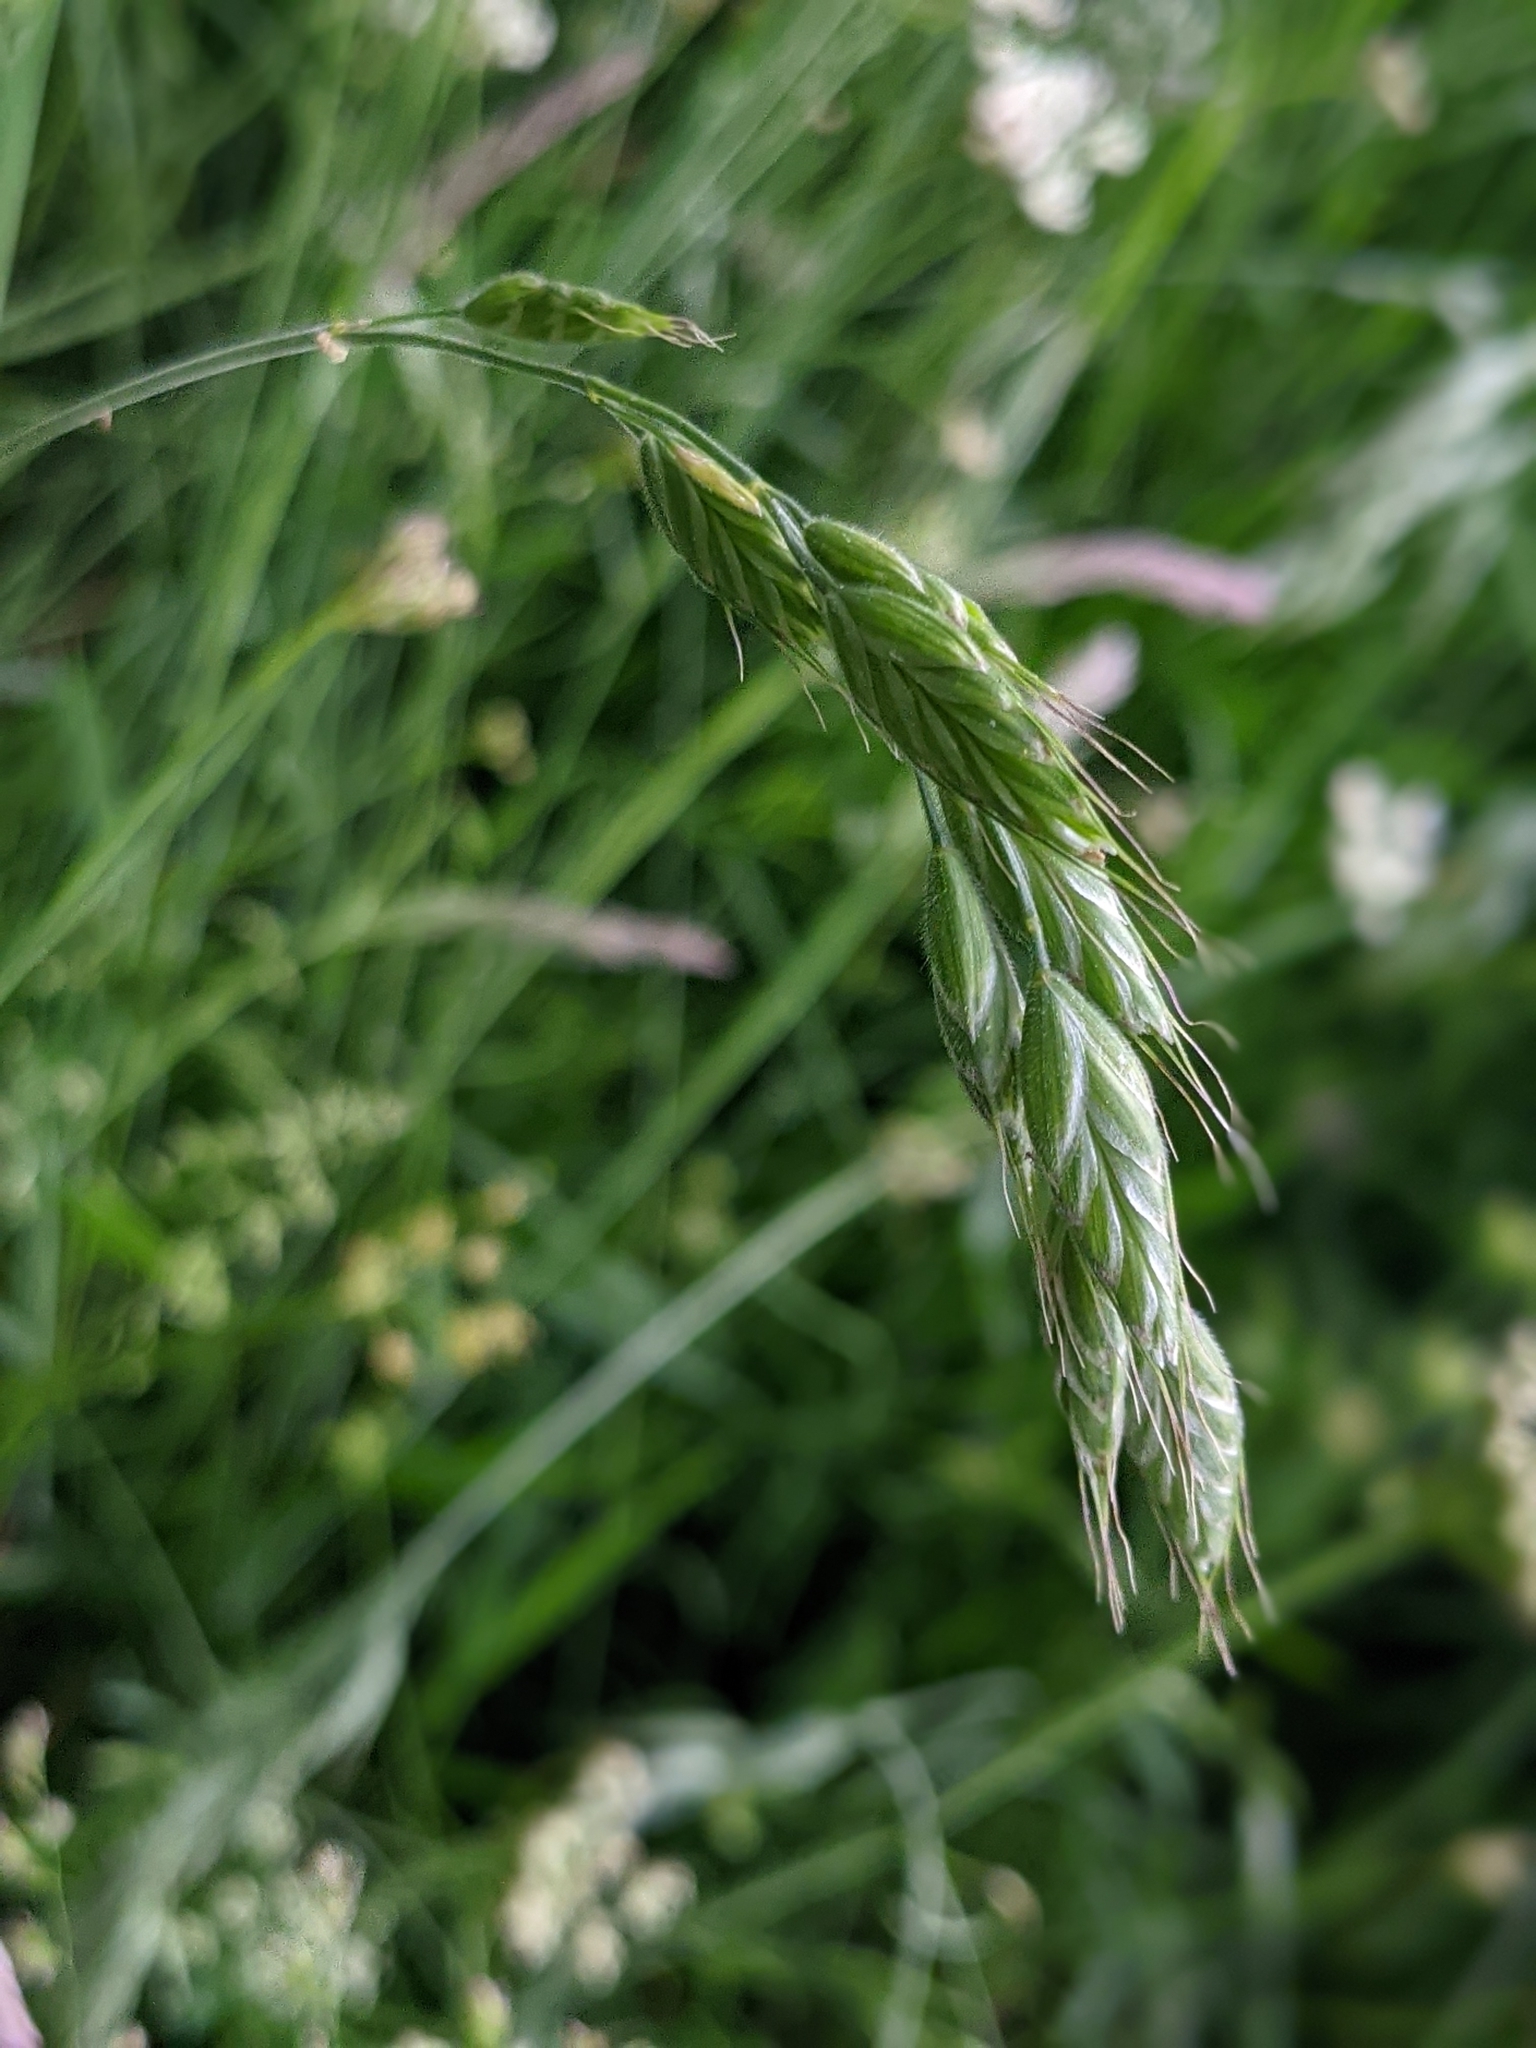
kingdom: Plantae
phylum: Tracheophyta
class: Liliopsida
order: Poales
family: Poaceae
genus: Bromus
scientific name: Bromus hordeaceus
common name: Soft brome
